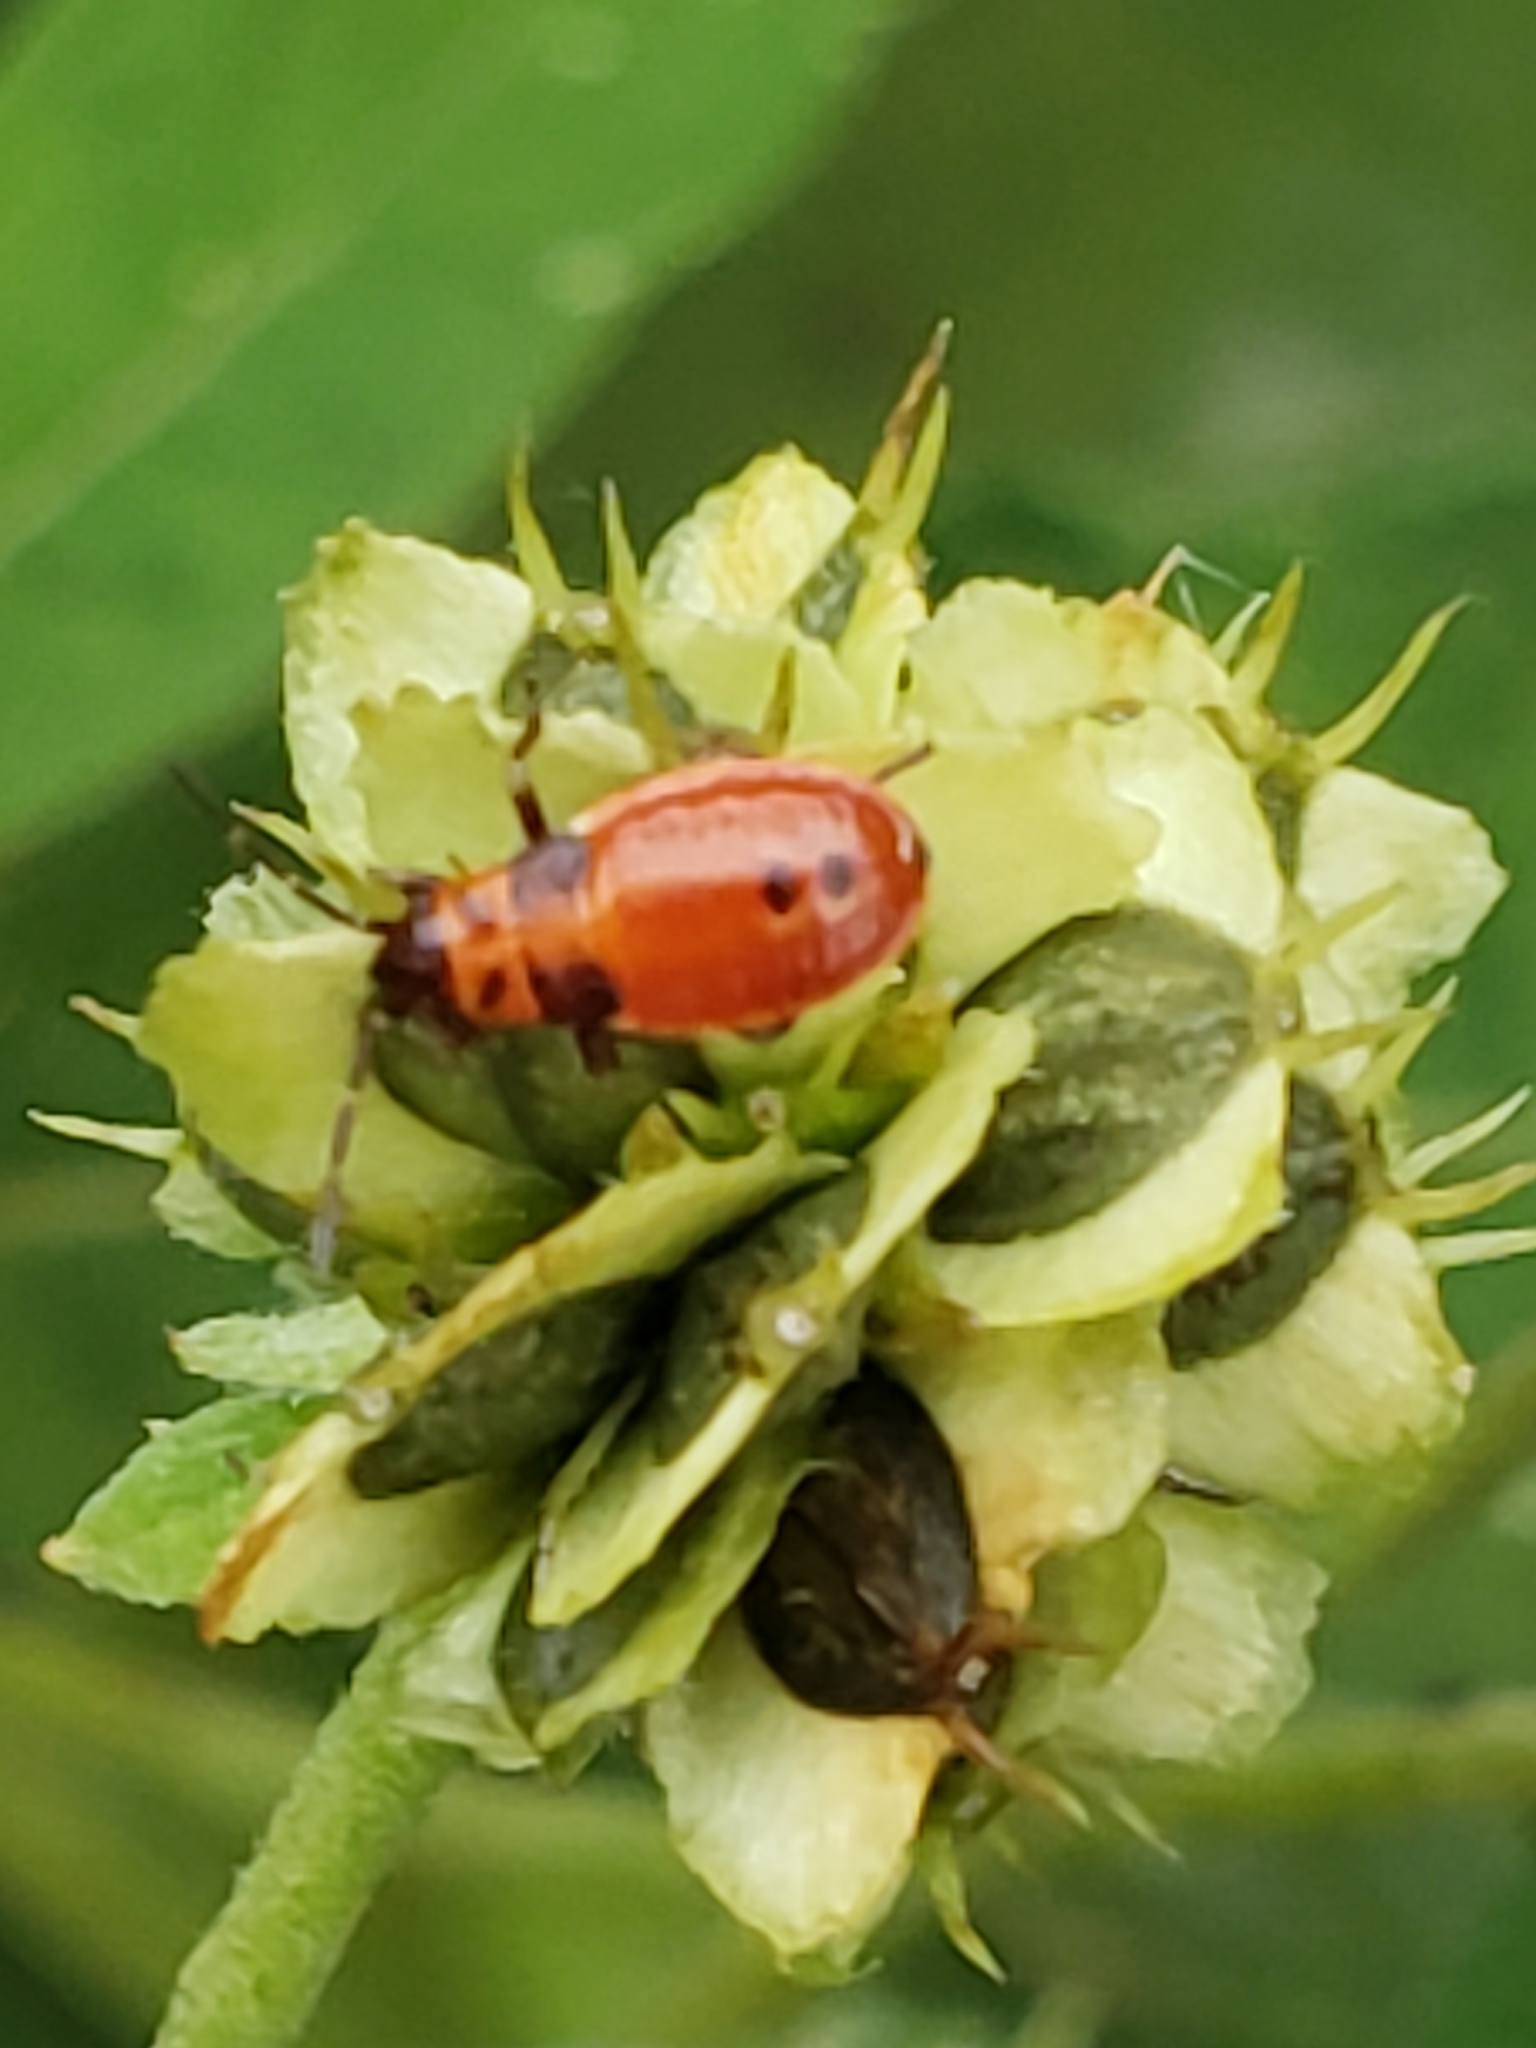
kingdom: Animalia
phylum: Arthropoda
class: Insecta
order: Hemiptera
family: Lygaeidae
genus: Lygaeus
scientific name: Lygaeus turcicus
